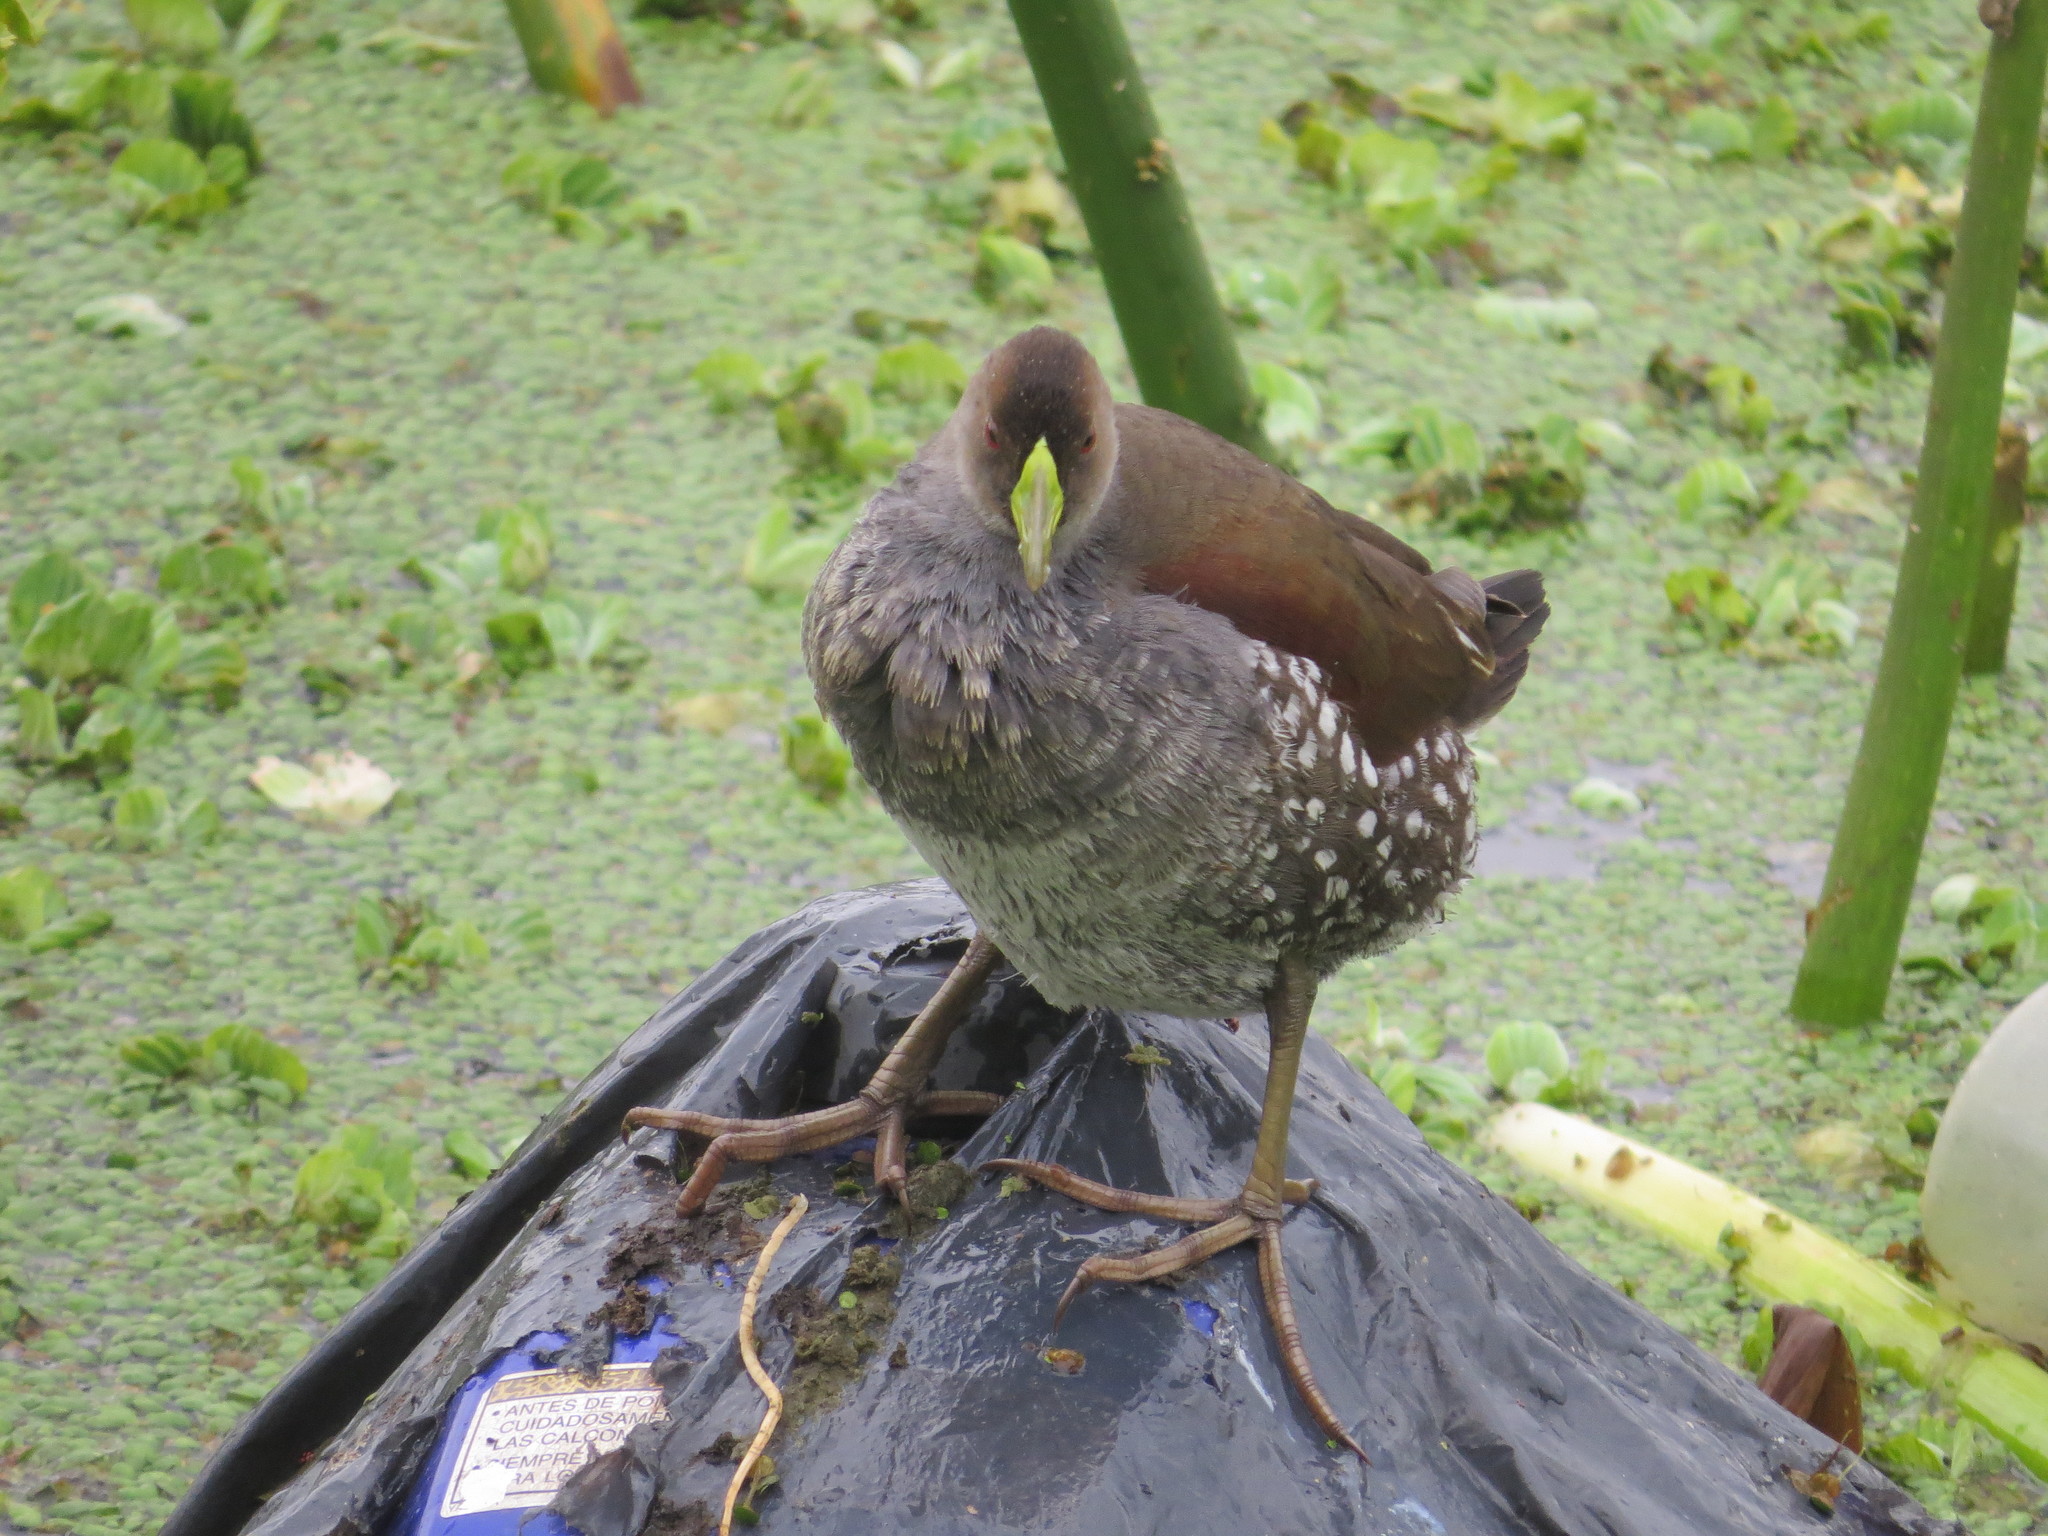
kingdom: Animalia
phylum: Chordata
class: Aves
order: Gruiformes
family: Rallidae
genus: Gallinula
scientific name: Gallinula melanops
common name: Spot-flanked gallinule
